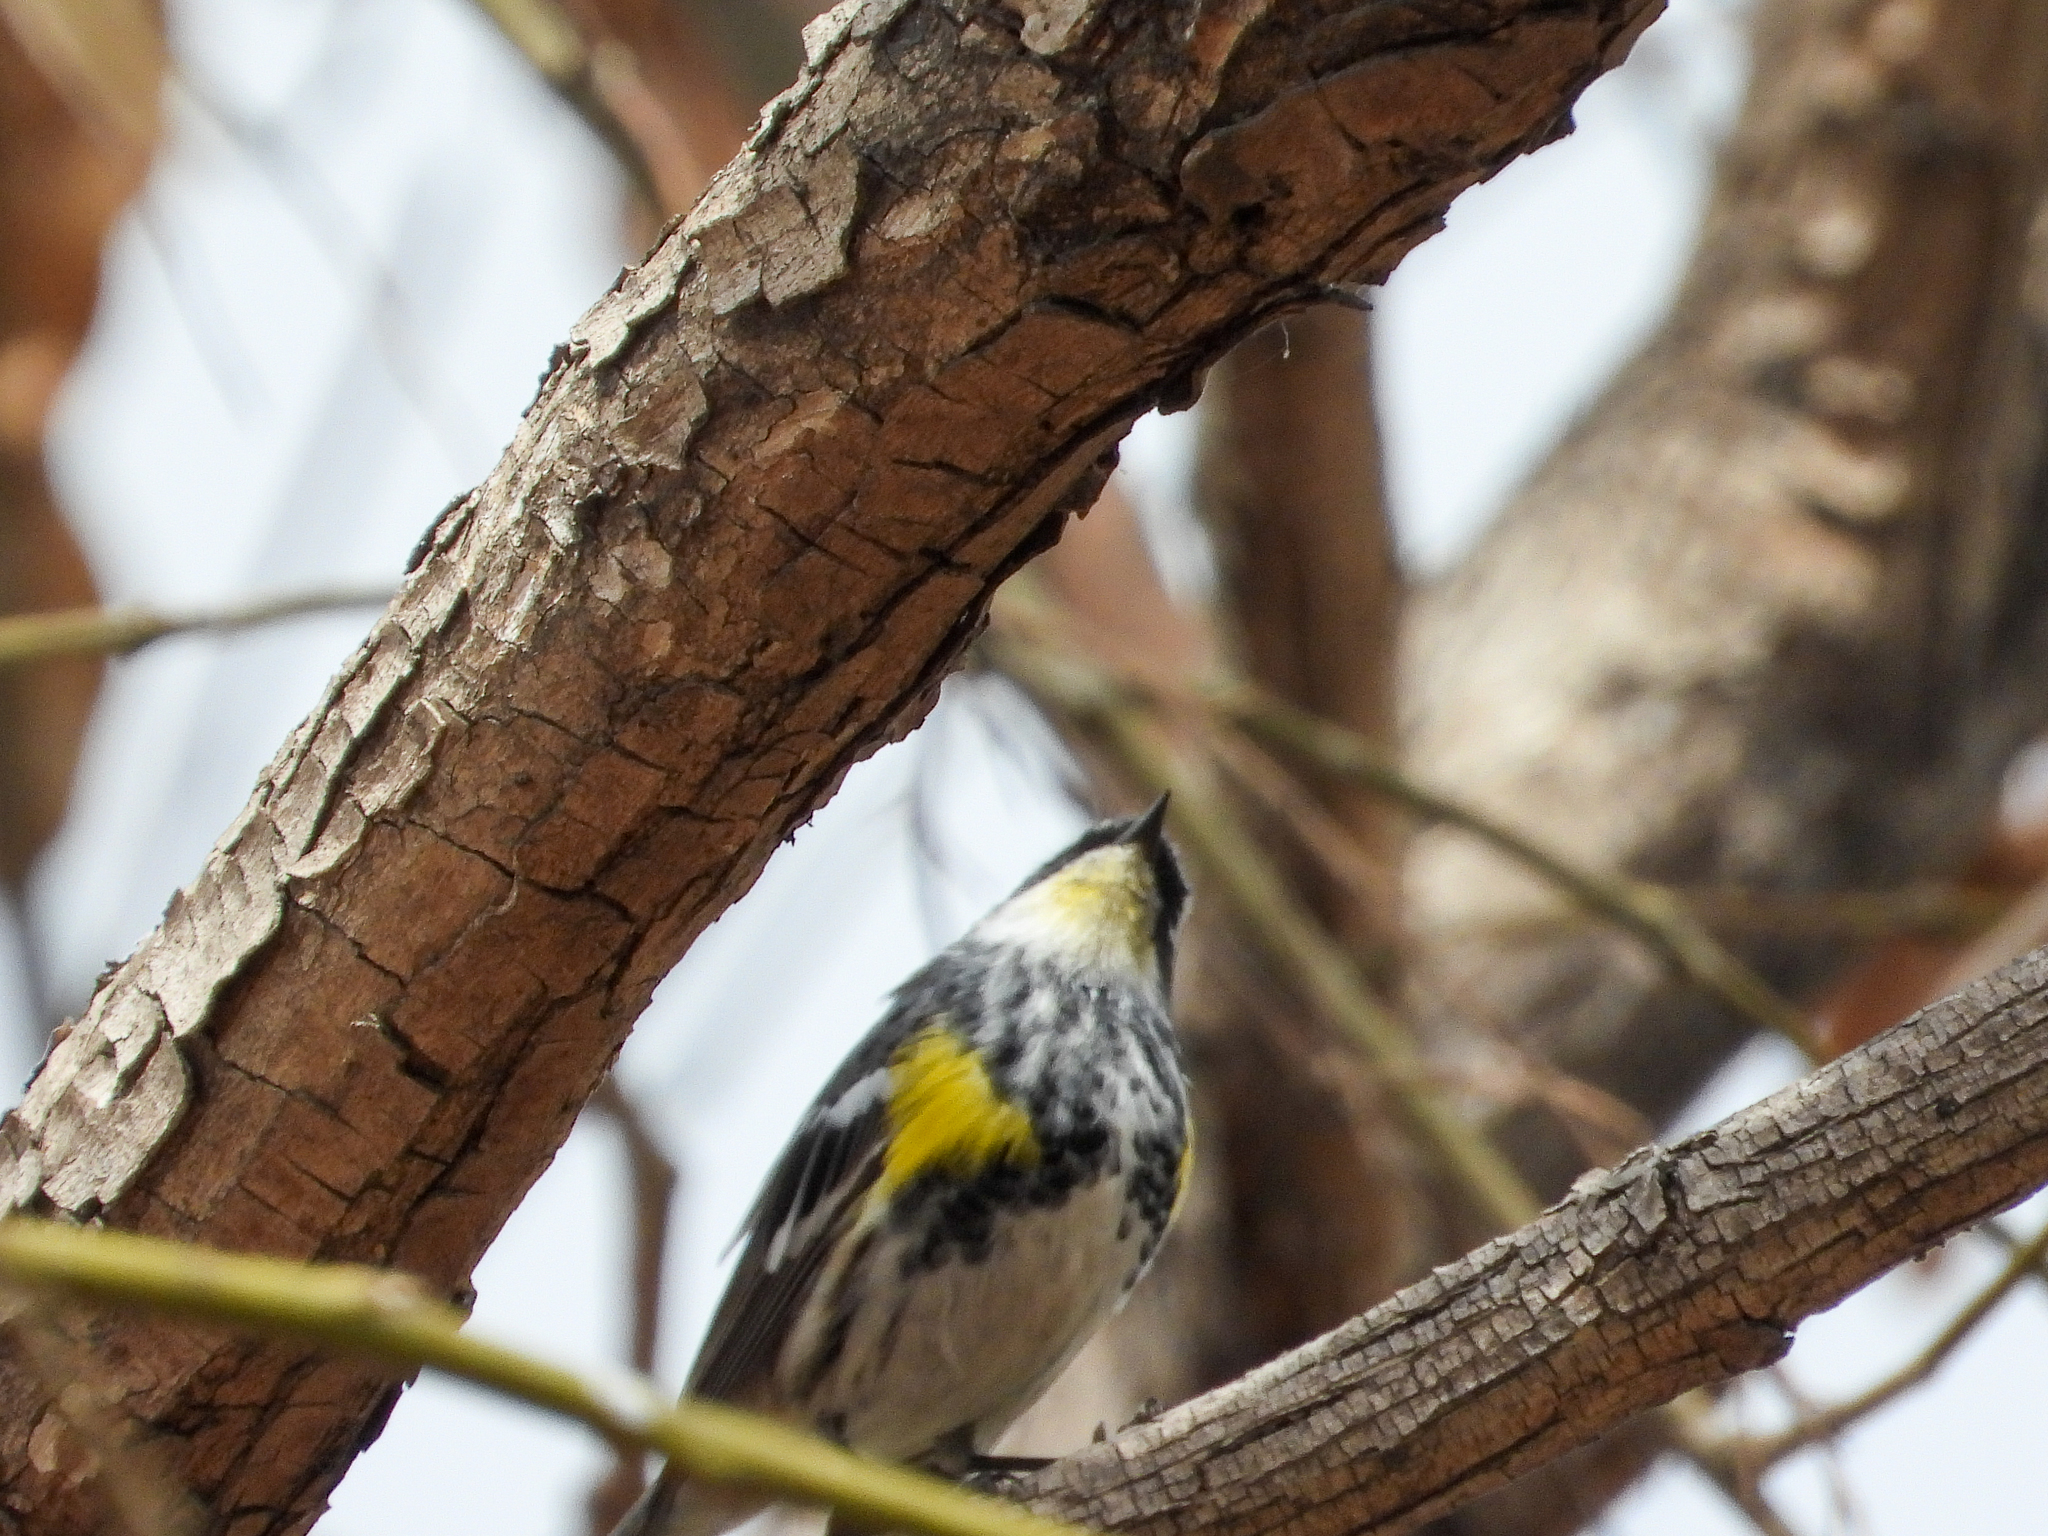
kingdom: Animalia
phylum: Chordata
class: Aves
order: Passeriformes
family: Parulidae
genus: Setophaga
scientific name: Setophaga
